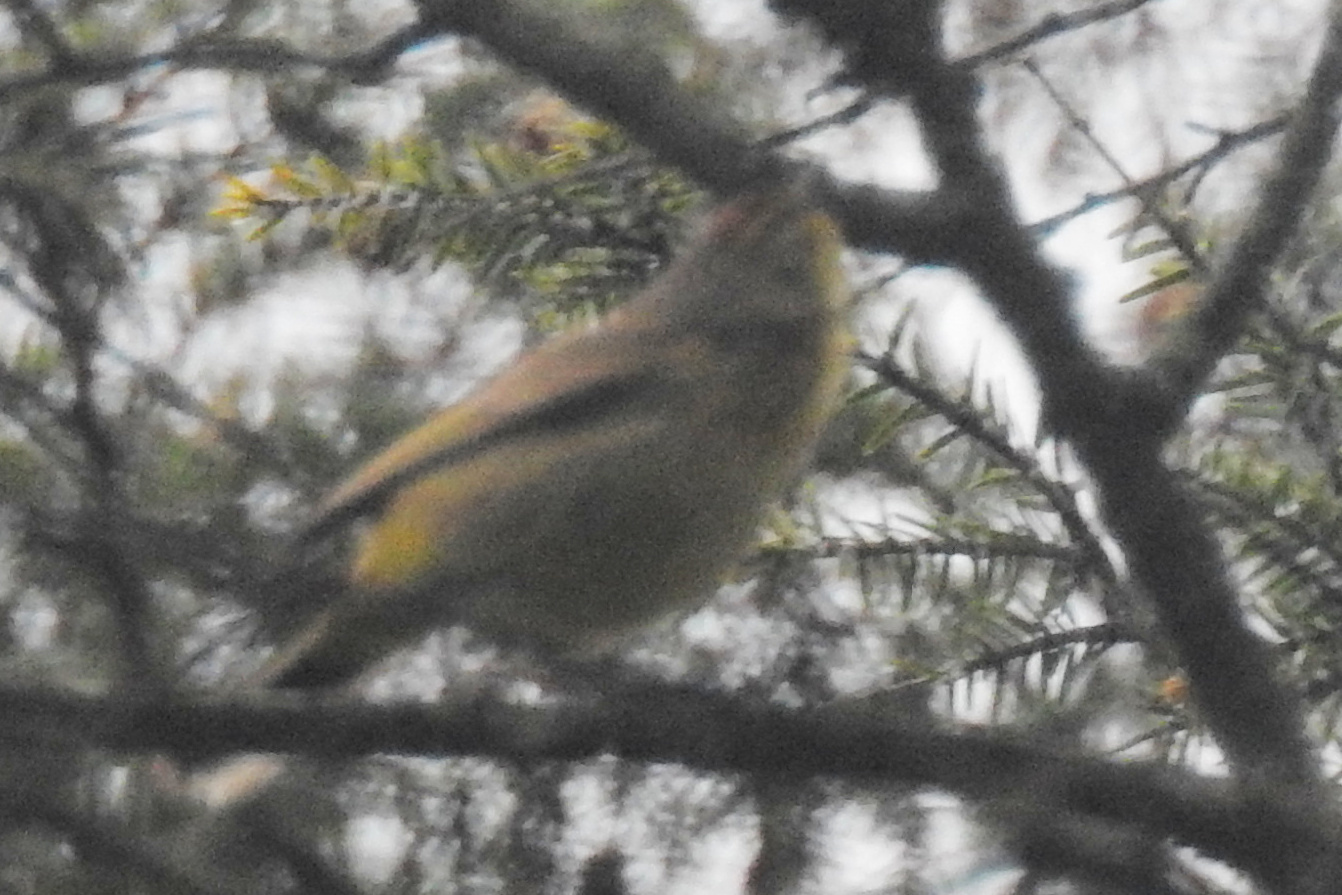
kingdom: Animalia
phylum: Chordata
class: Aves
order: Passeriformes
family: Parulidae
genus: Setophaga
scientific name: Setophaga palmarum
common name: Palm warbler
